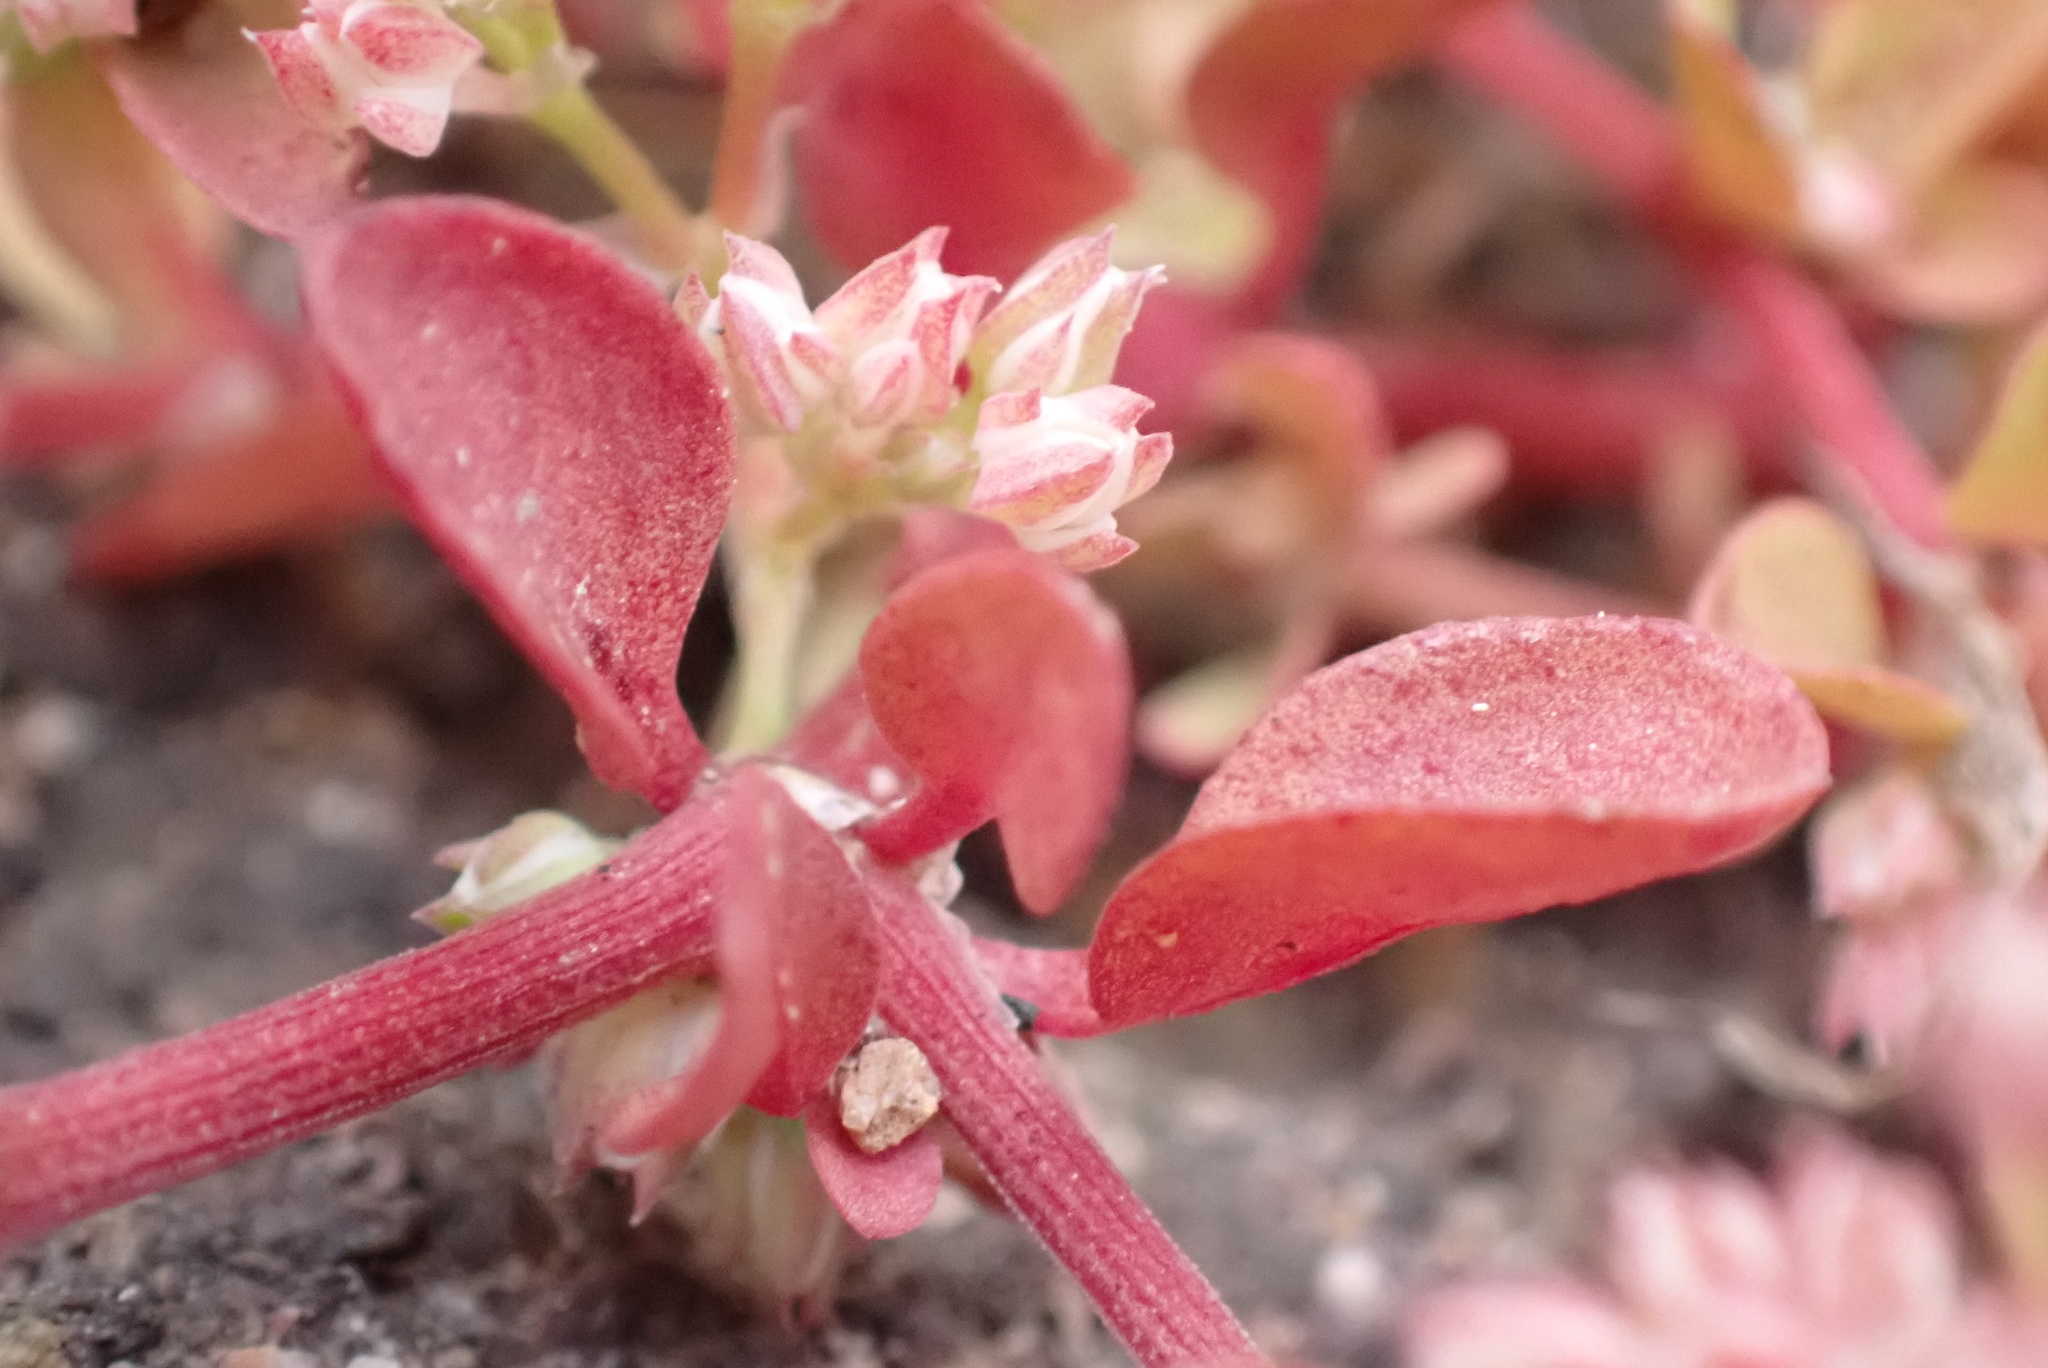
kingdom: Plantae
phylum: Tracheophyta
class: Magnoliopsida
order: Caryophyllales
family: Caryophyllaceae
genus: Polycarpon
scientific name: Polycarpon tetraphyllum
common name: Four-leaved all-seed
